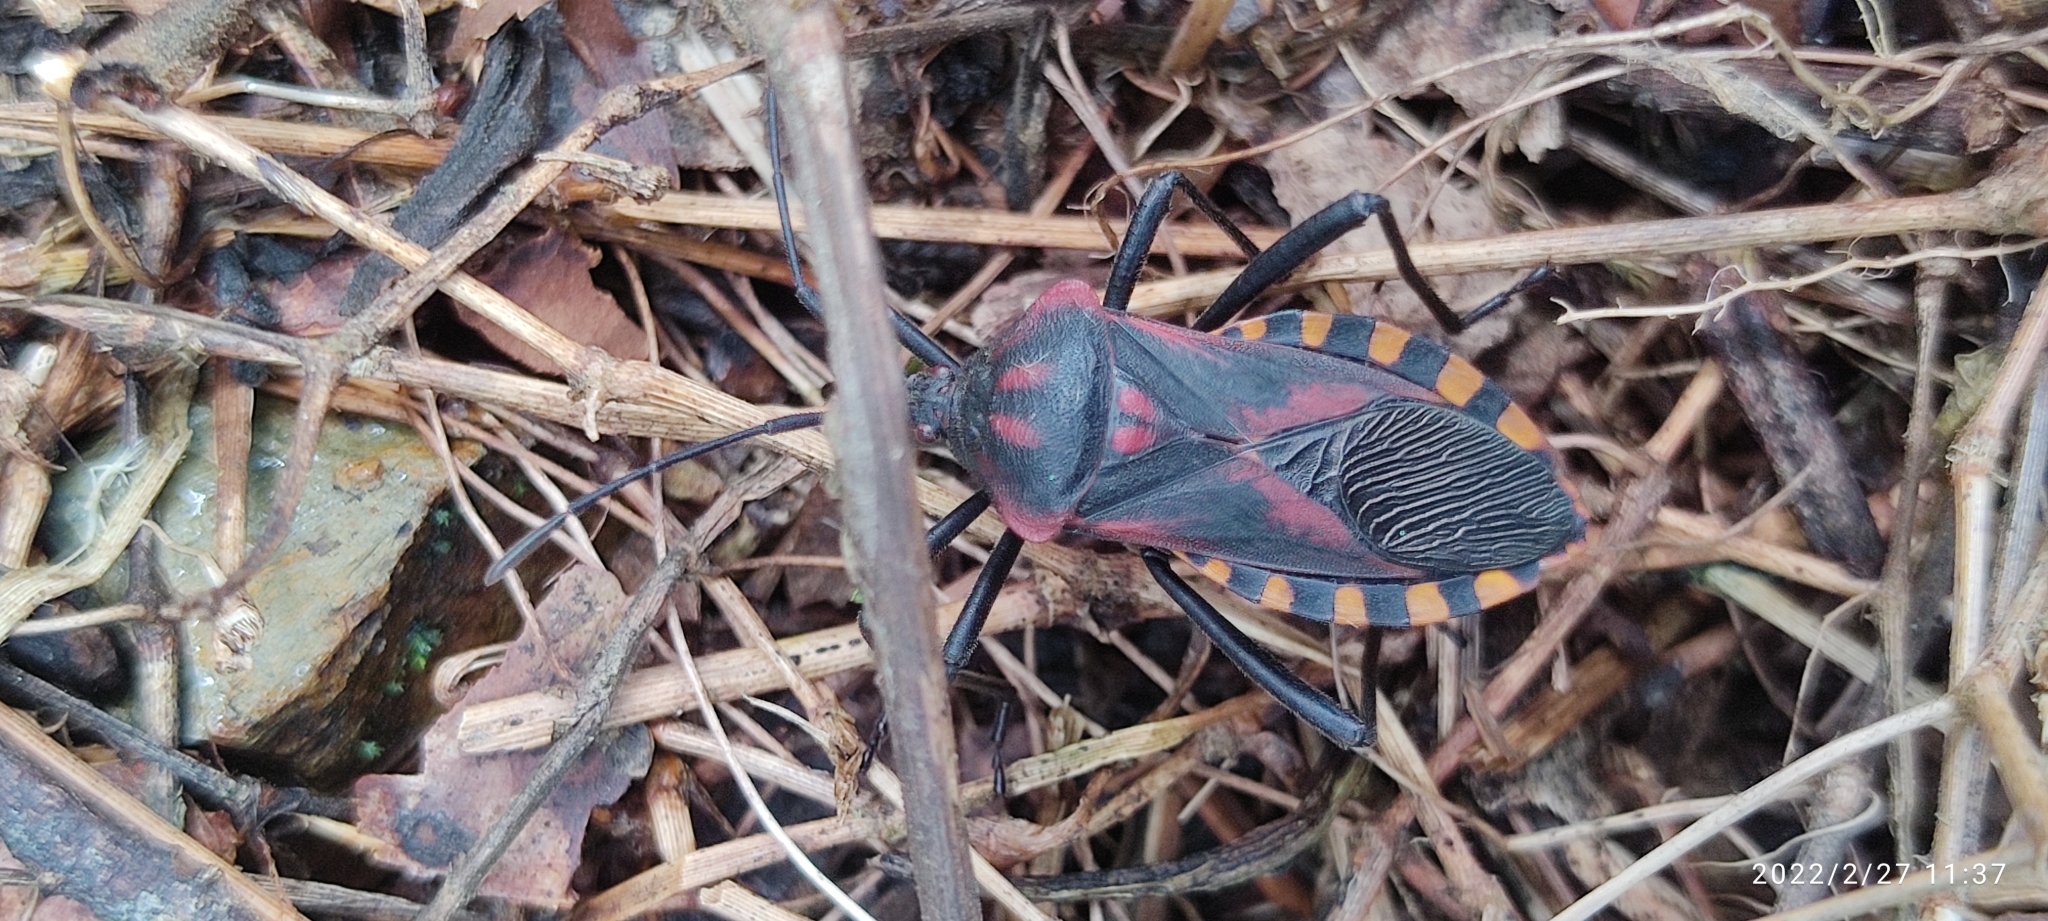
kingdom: Animalia
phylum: Arthropoda
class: Insecta
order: Hemiptera
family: Coreidae
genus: Piezogaster
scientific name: Piezogaster rubropictus
